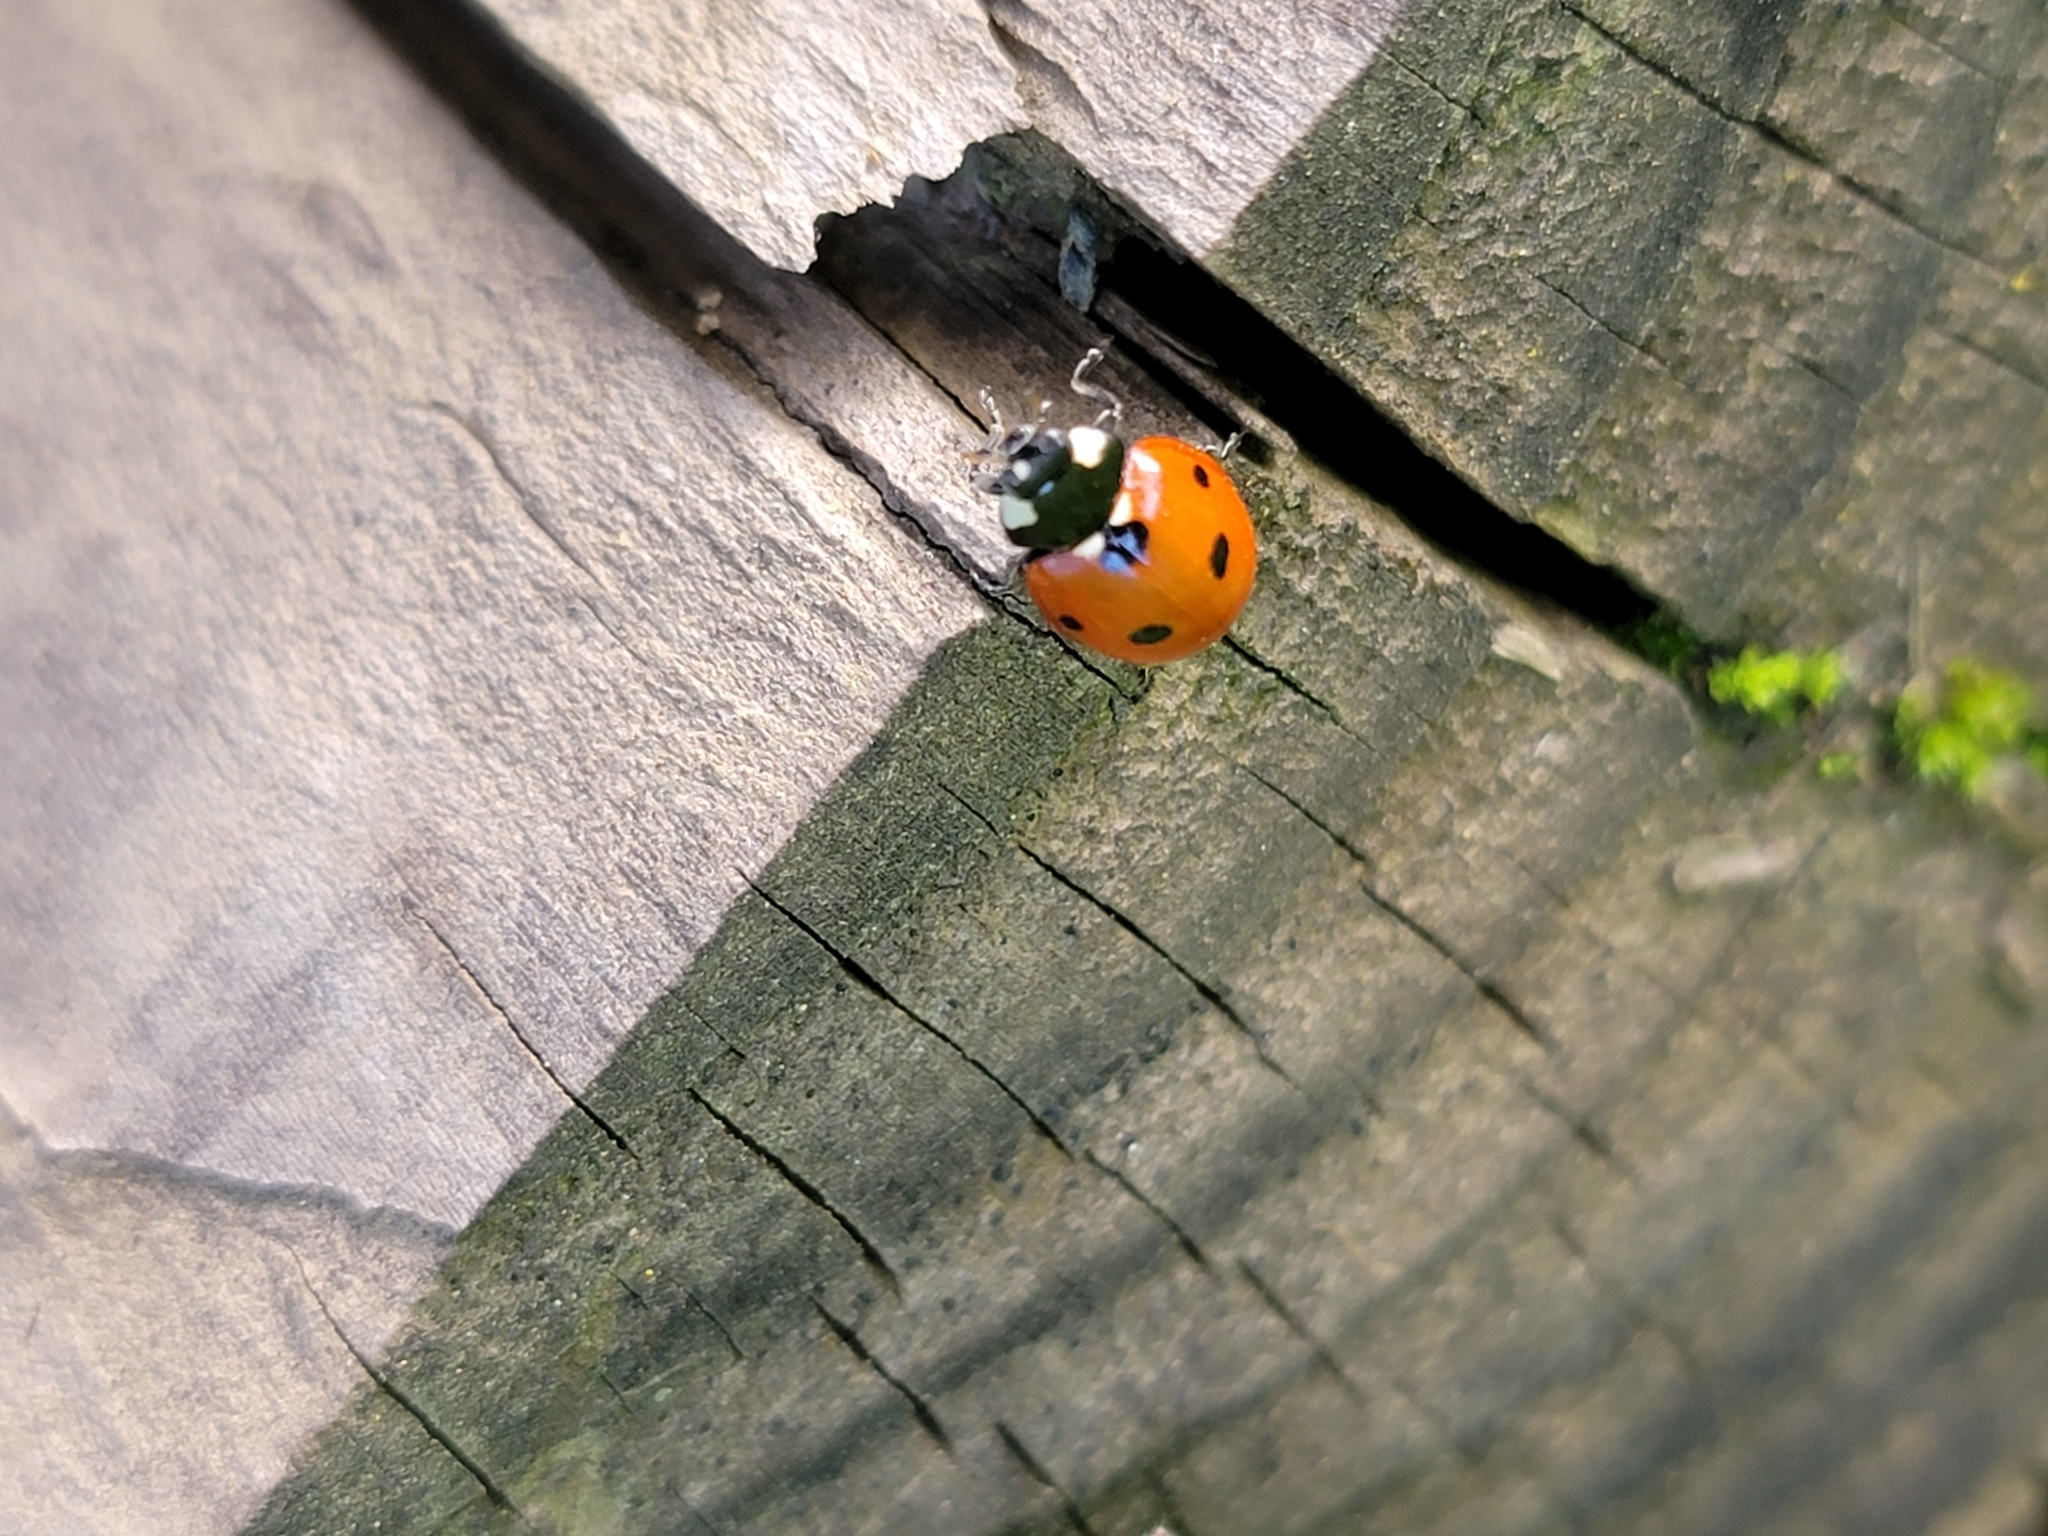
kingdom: Animalia
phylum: Arthropoda
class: Insecta
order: Coleoptera
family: Coccinellidae
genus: Coccinella
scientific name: Coccinella septempunctata
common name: Sevenspotted lady beetle
